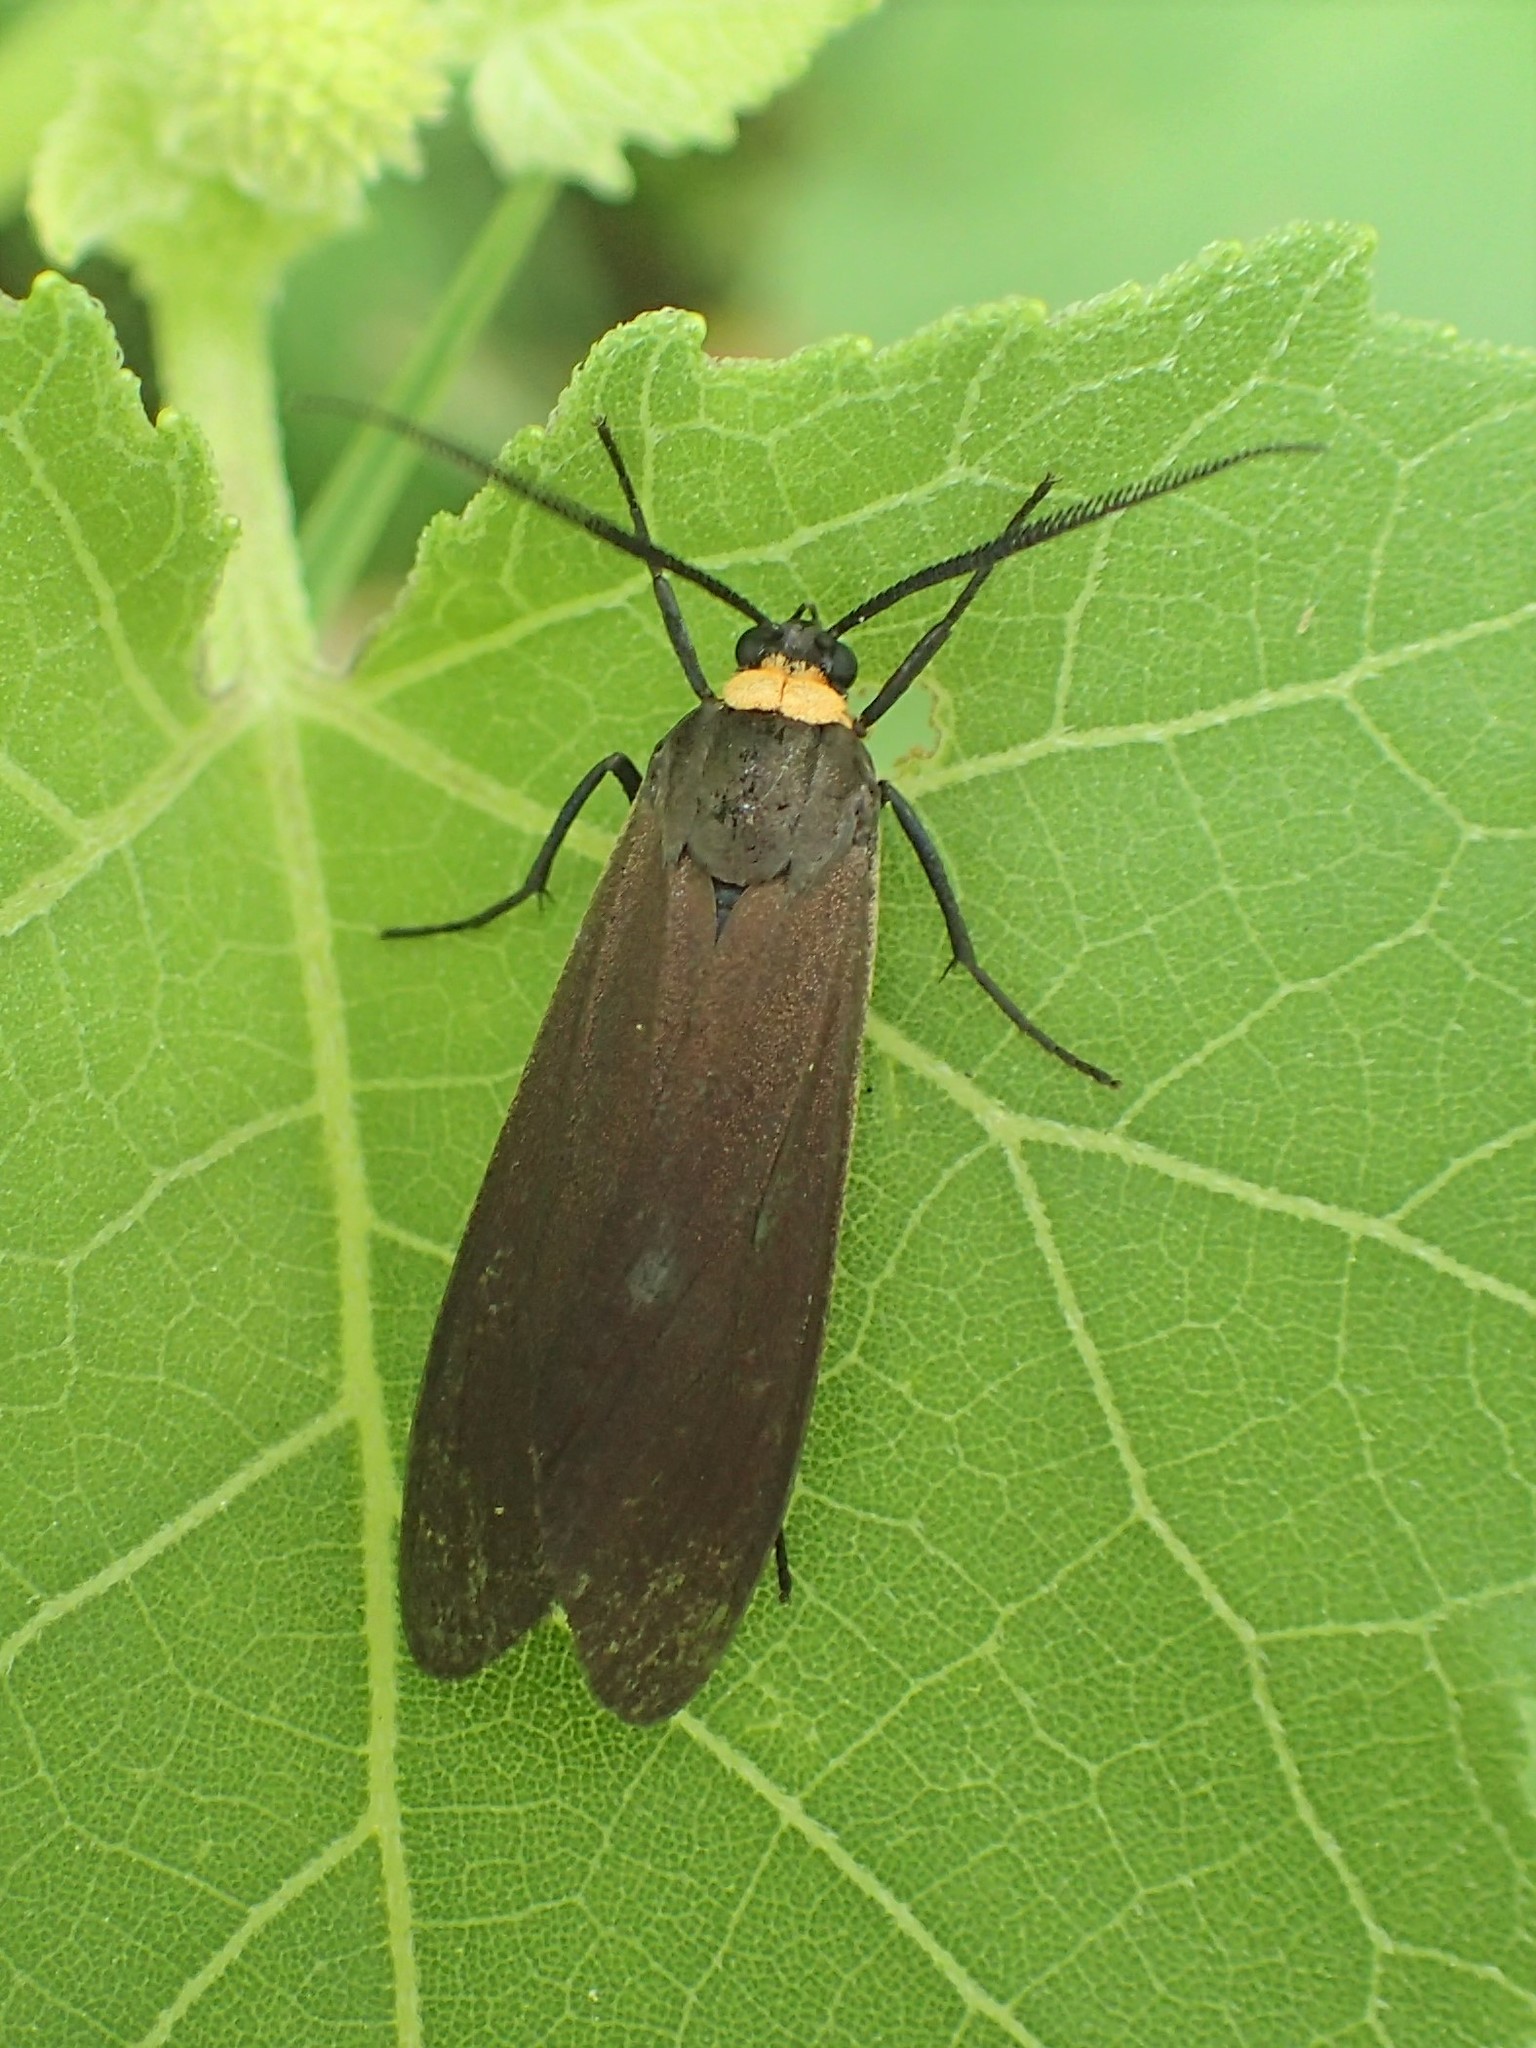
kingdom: Animalia
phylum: Arthropoda
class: Insecta
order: Lepidoptera
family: Erebidae
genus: Cisseps
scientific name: Cisseps fulvicollis
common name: Yellow-collared scape moth
